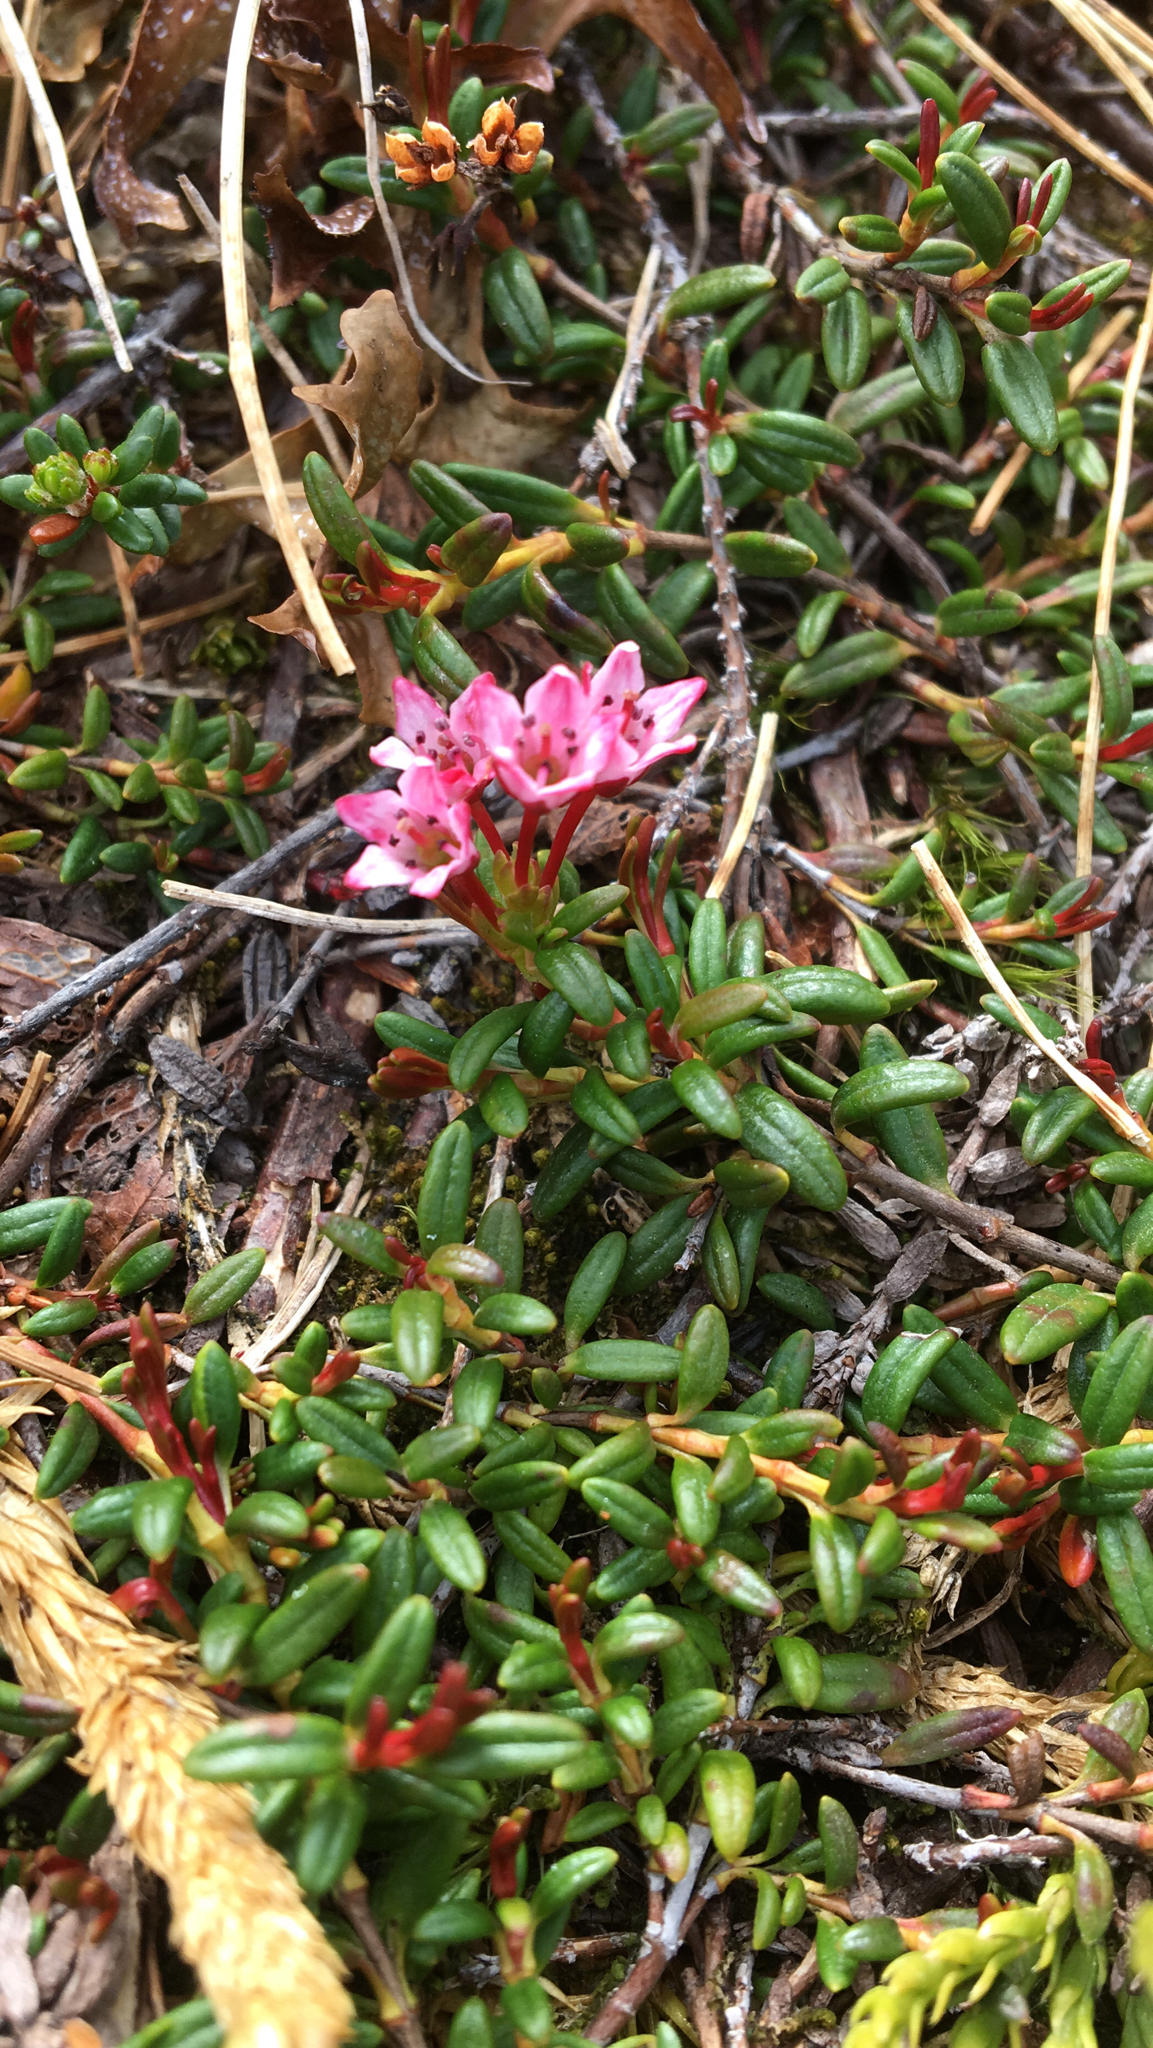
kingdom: Plantae
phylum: Tracheophyta
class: Magnoliopsida
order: Ericales
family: Ericaceae
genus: Kalmia
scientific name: Kalmia procumbens
